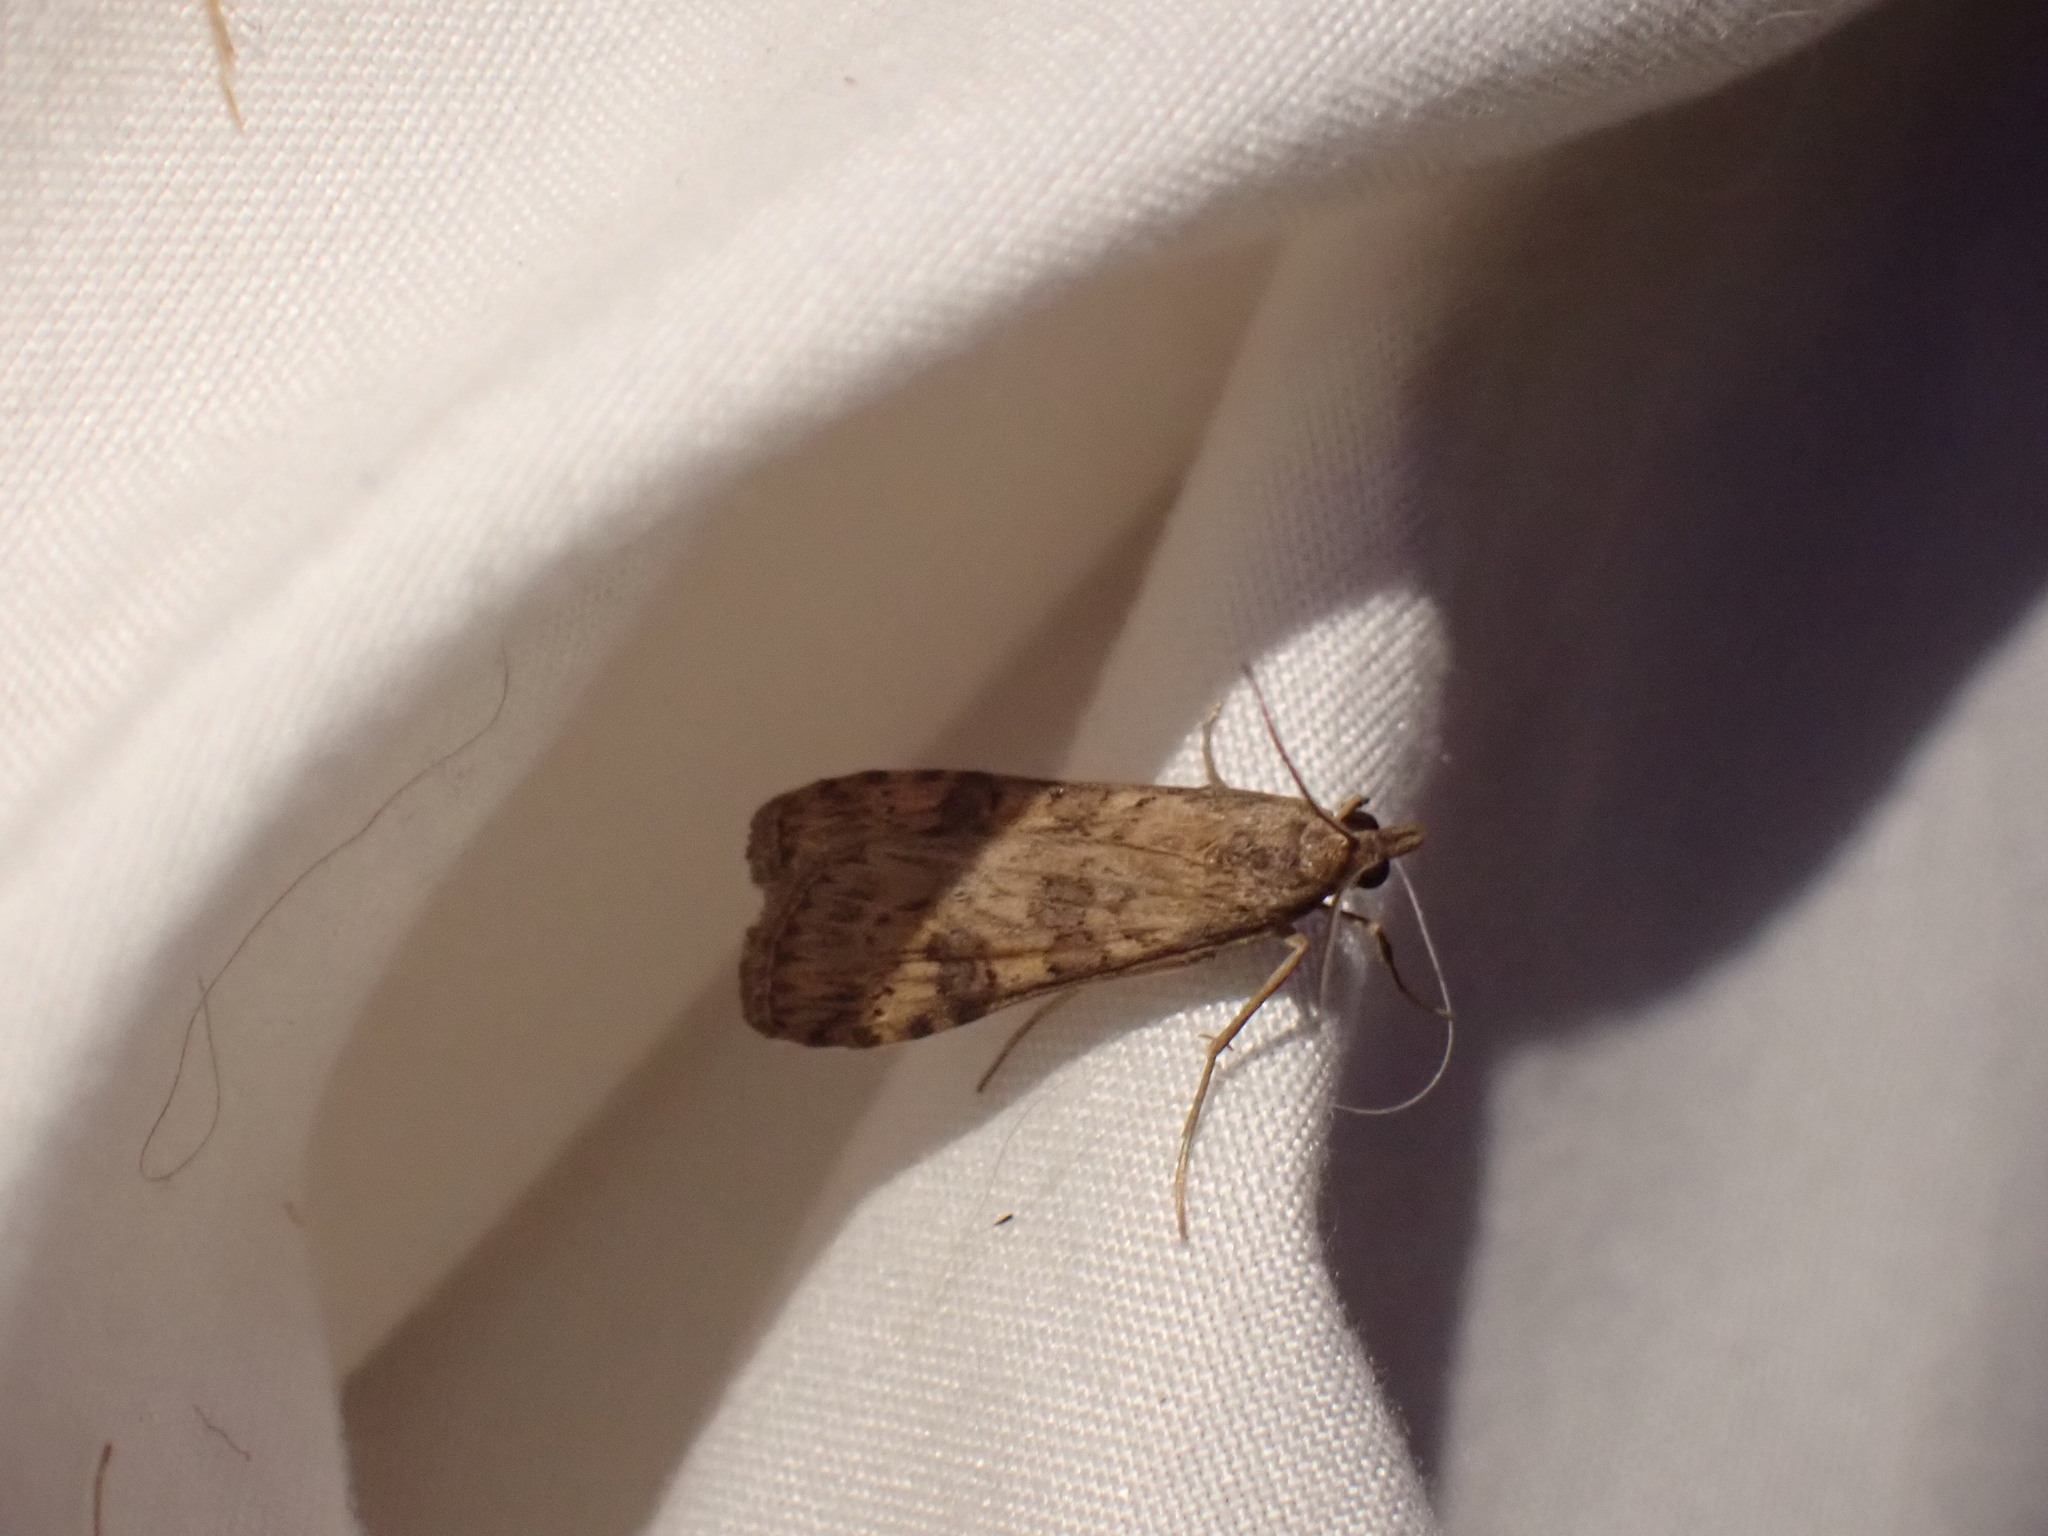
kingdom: Animalia
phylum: Arthropoda
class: Insecta
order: Lepidoptera
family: Crambidae
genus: Nomophila
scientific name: Nomophila nearctica
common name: American rush veneer
